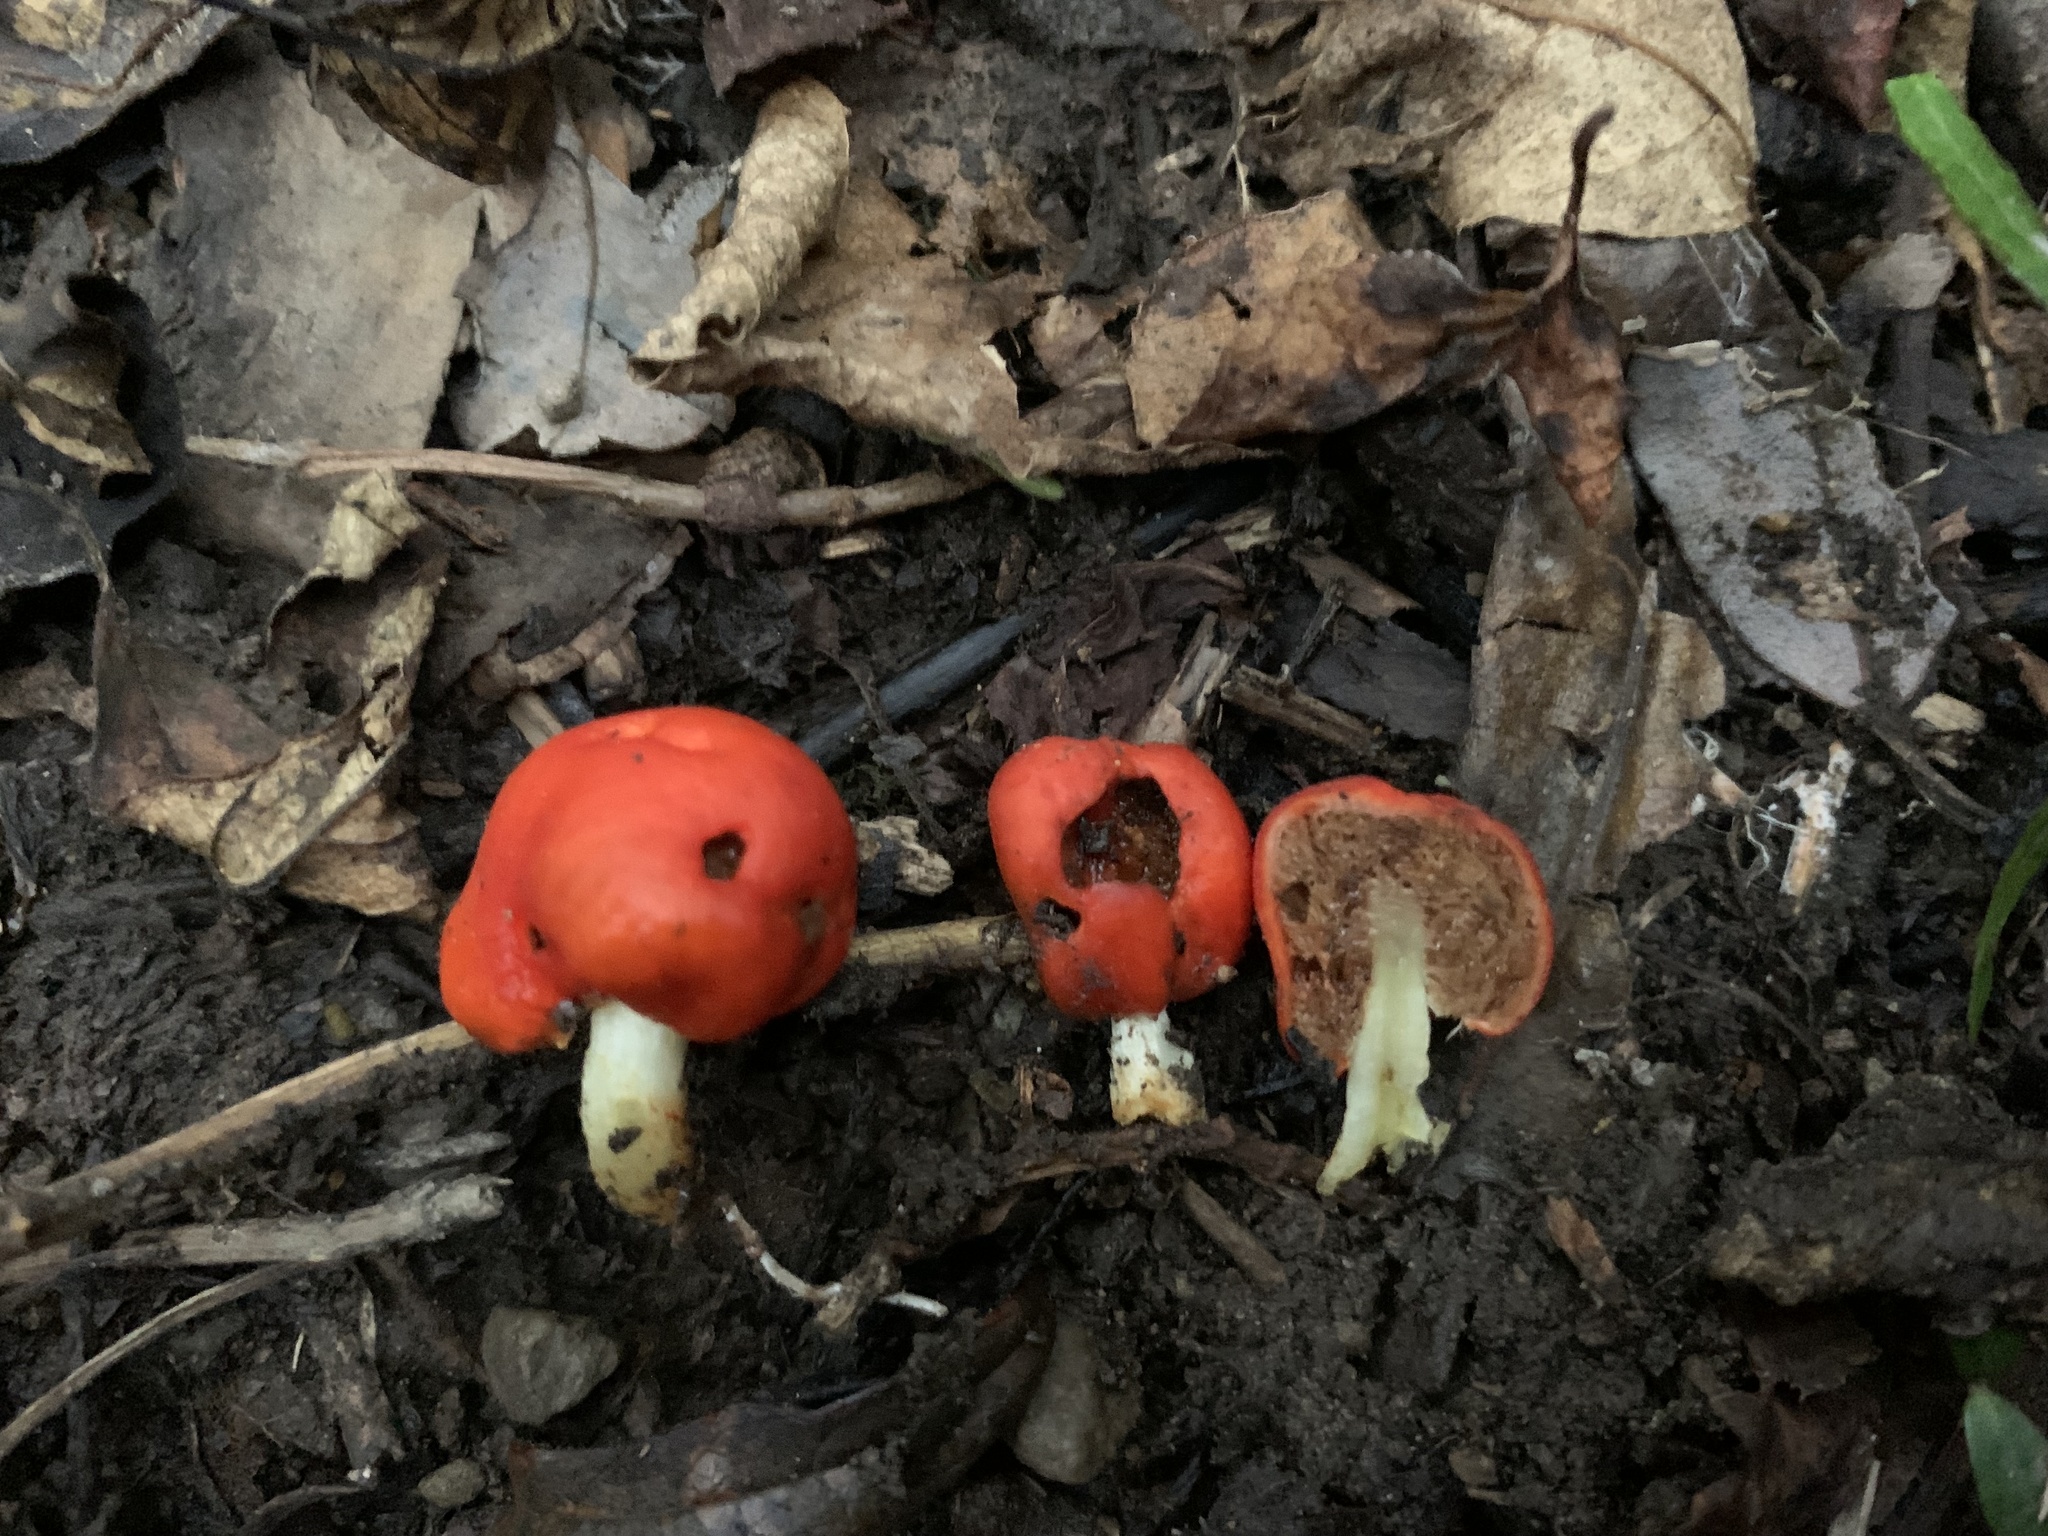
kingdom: Fungi
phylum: Basidiomycota
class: Agaricomycetes
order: Agaricales
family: Strophariaceae
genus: Leratiomyces
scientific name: Leratiomyces erythrocephalus
